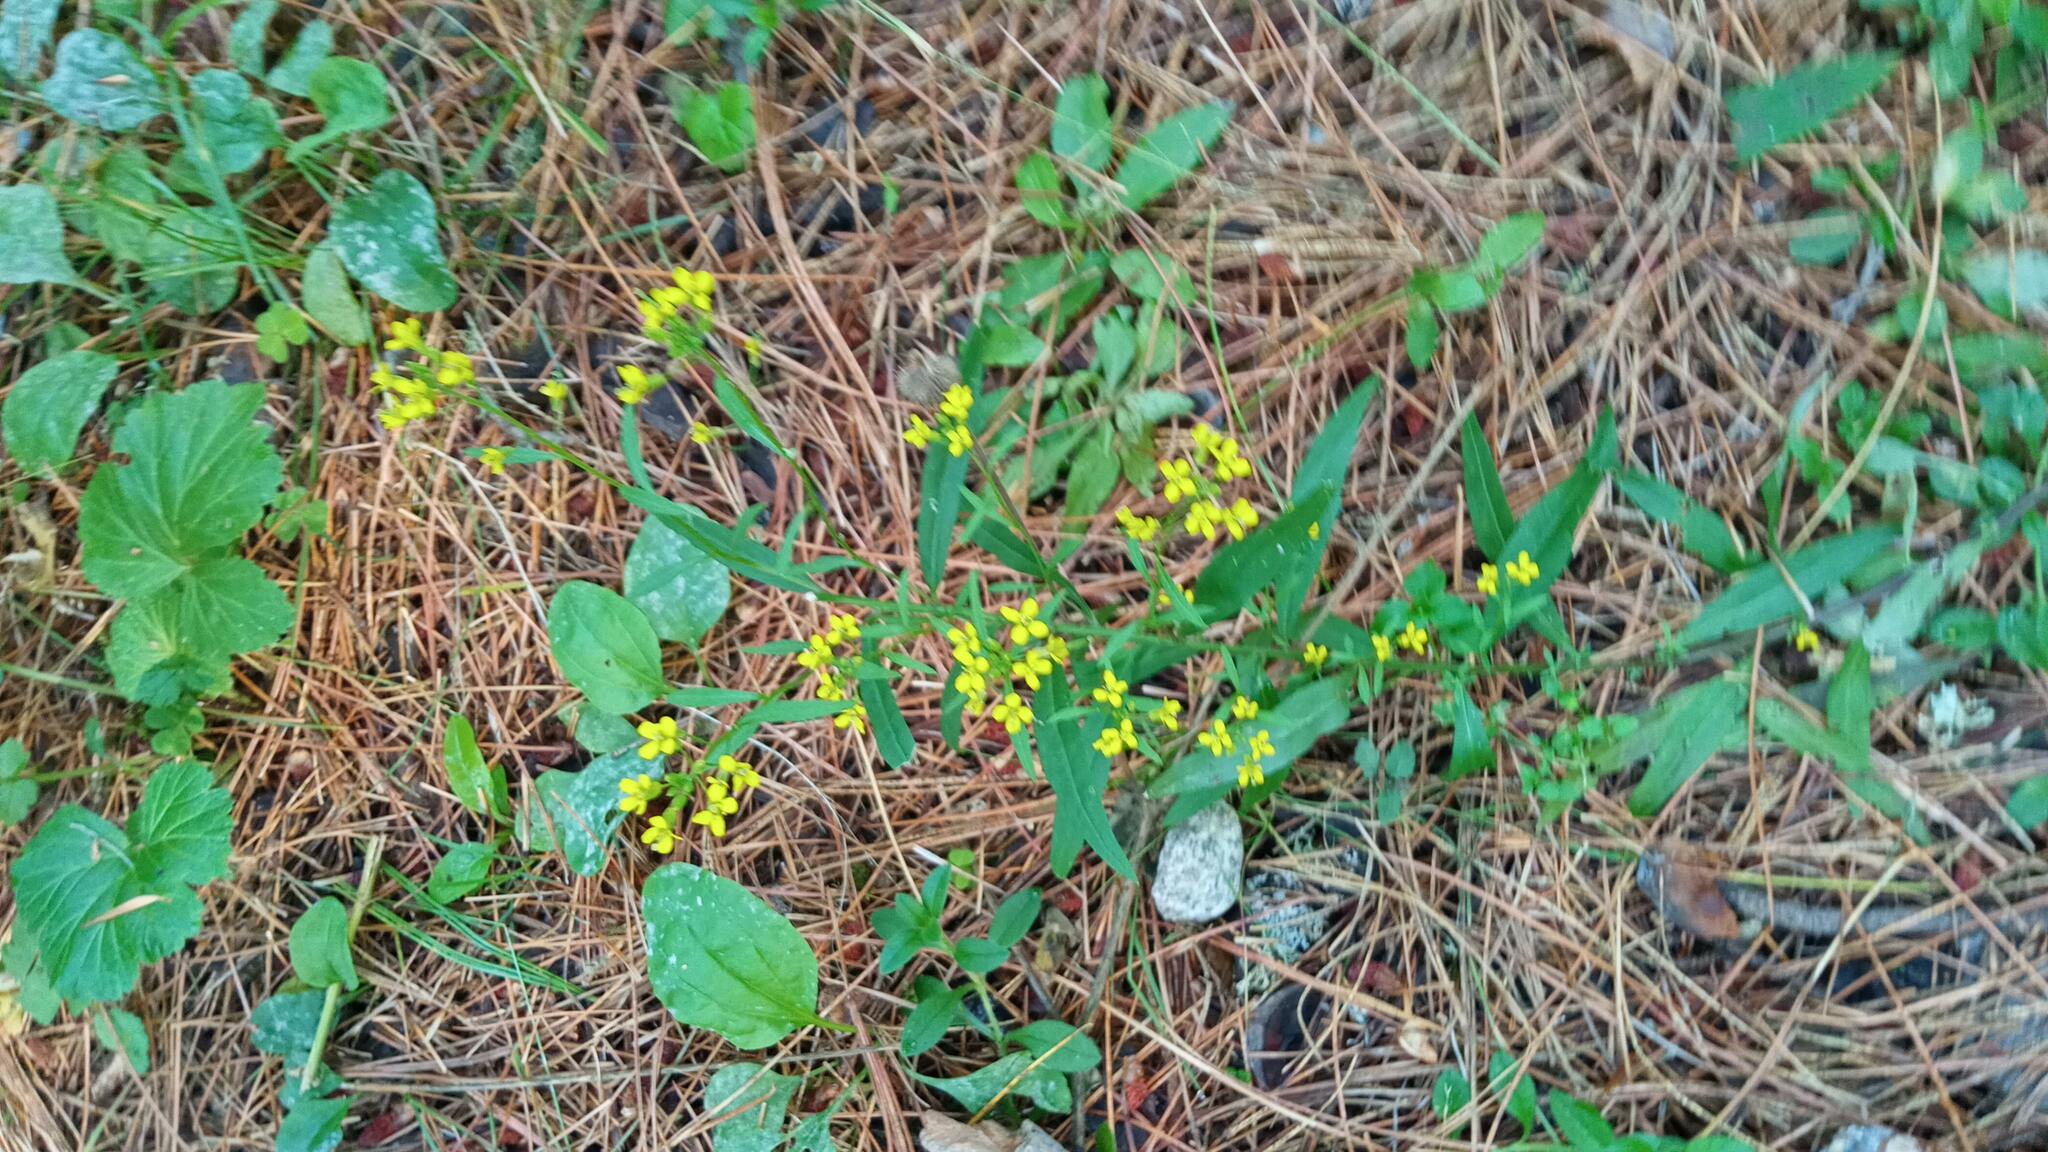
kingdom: Plantae
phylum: Tracheophyta
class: Magnoliopsida
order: Brassicales
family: Brassicaceae
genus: Erysimum
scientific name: Erysimum cheiranthoides
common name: Treacle mustard
